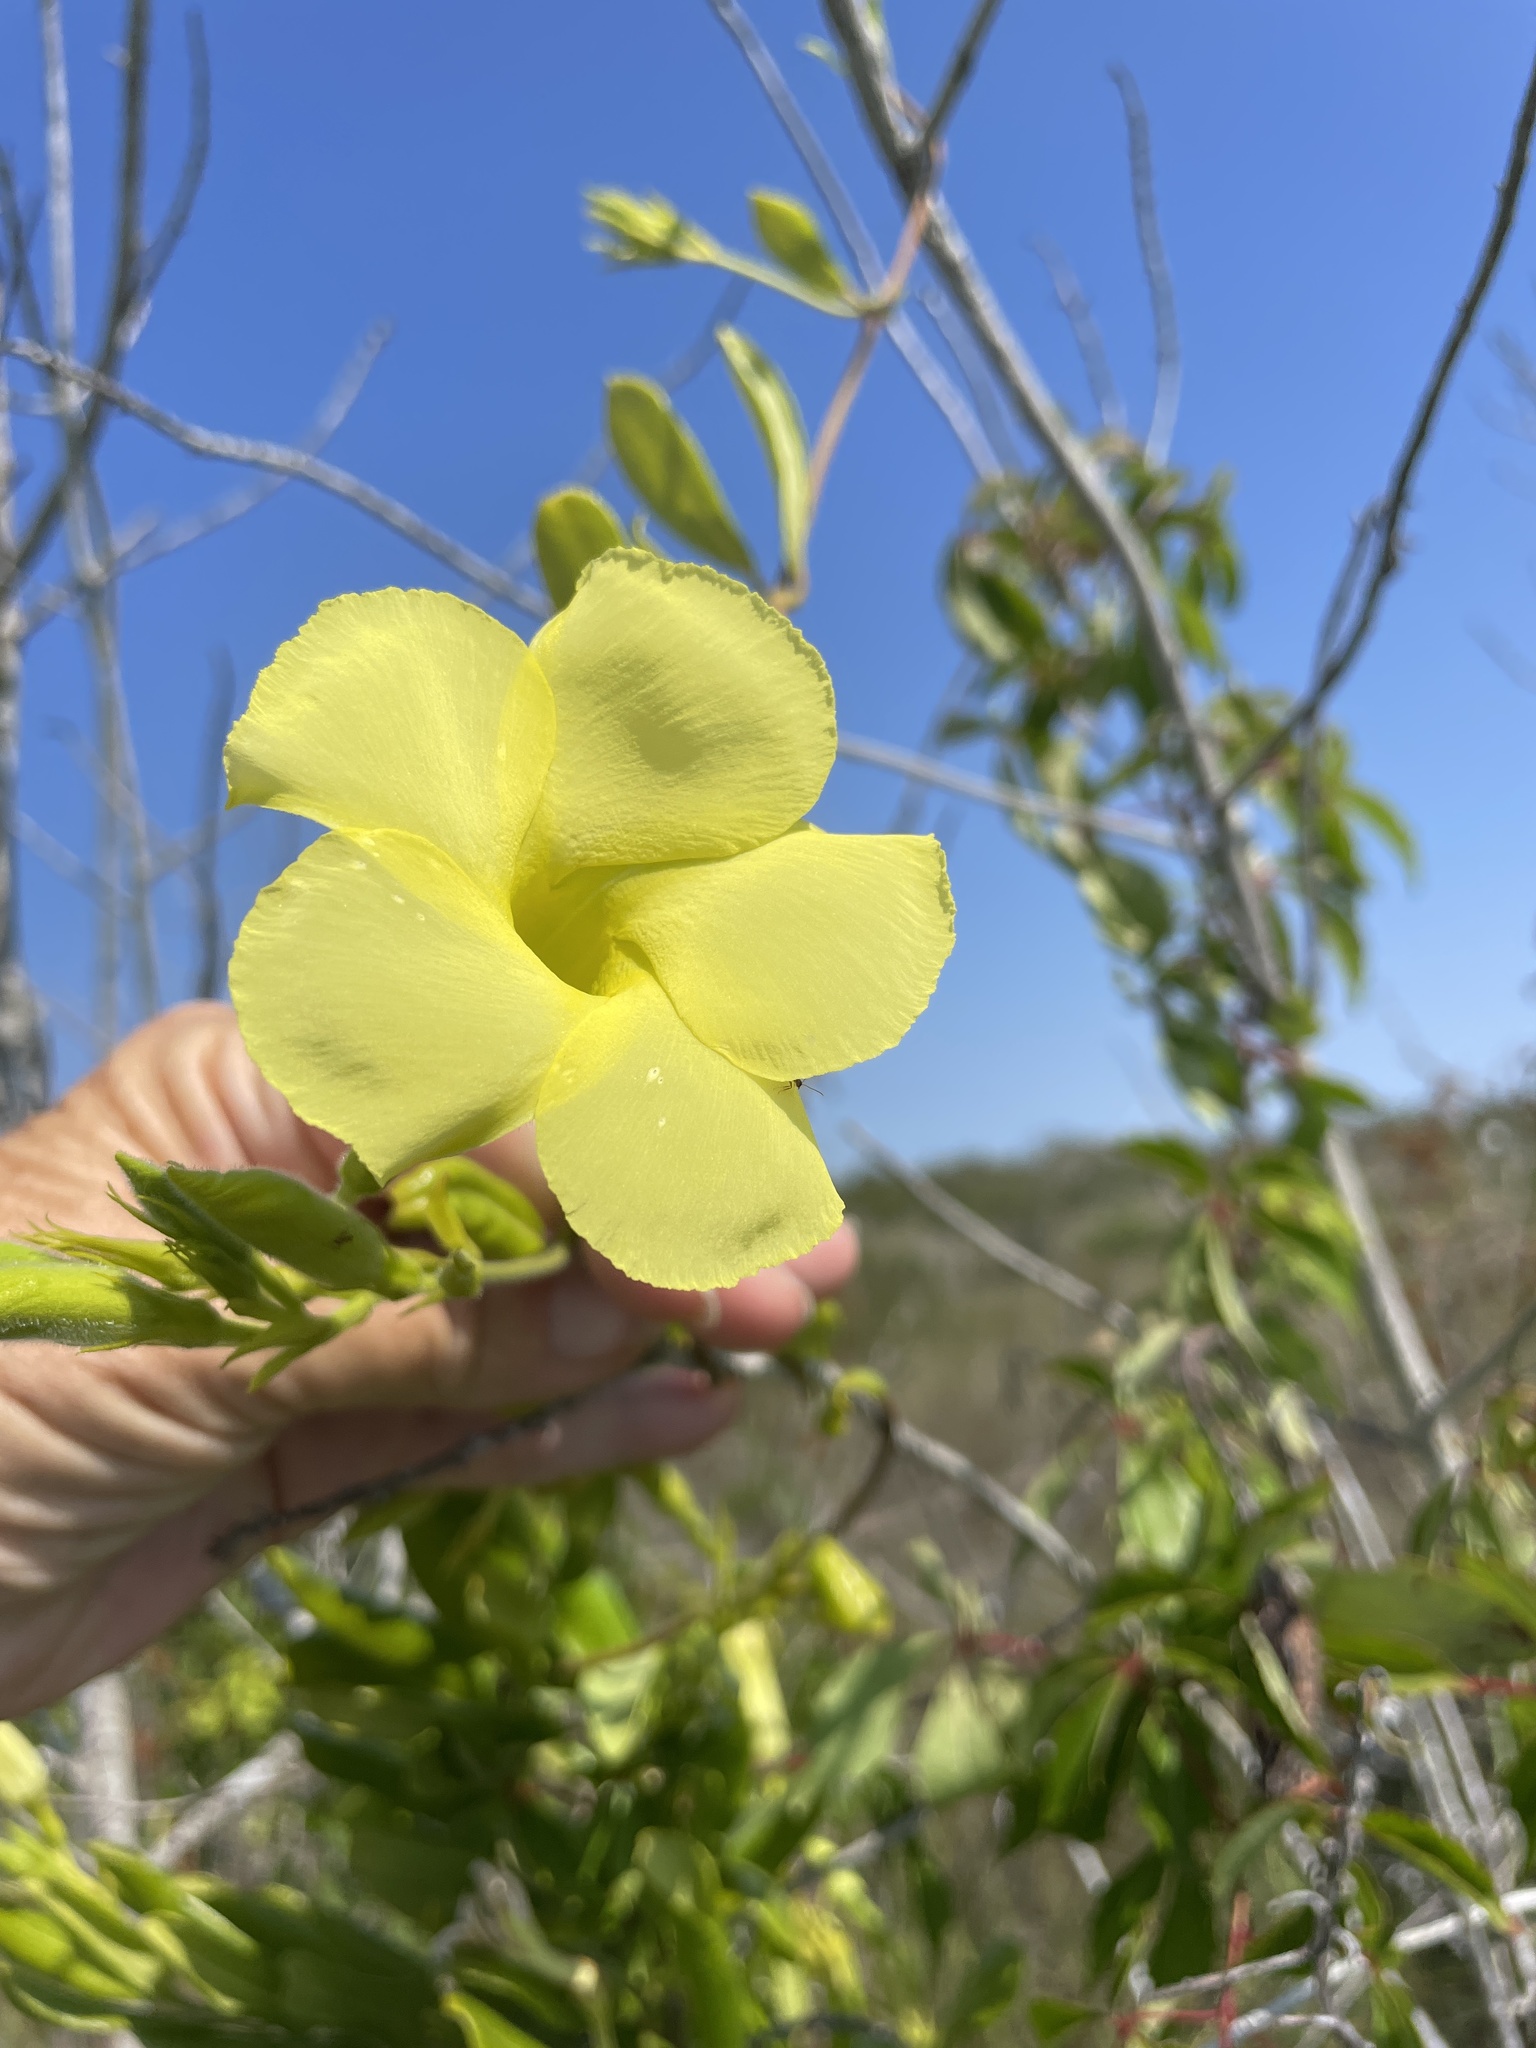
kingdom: Plantae
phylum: Tracheophyta
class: Magnoliopsida
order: Gentianales
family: Apocynaceae
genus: Pentalinon
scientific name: Pentalinon luteum
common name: Licebush
